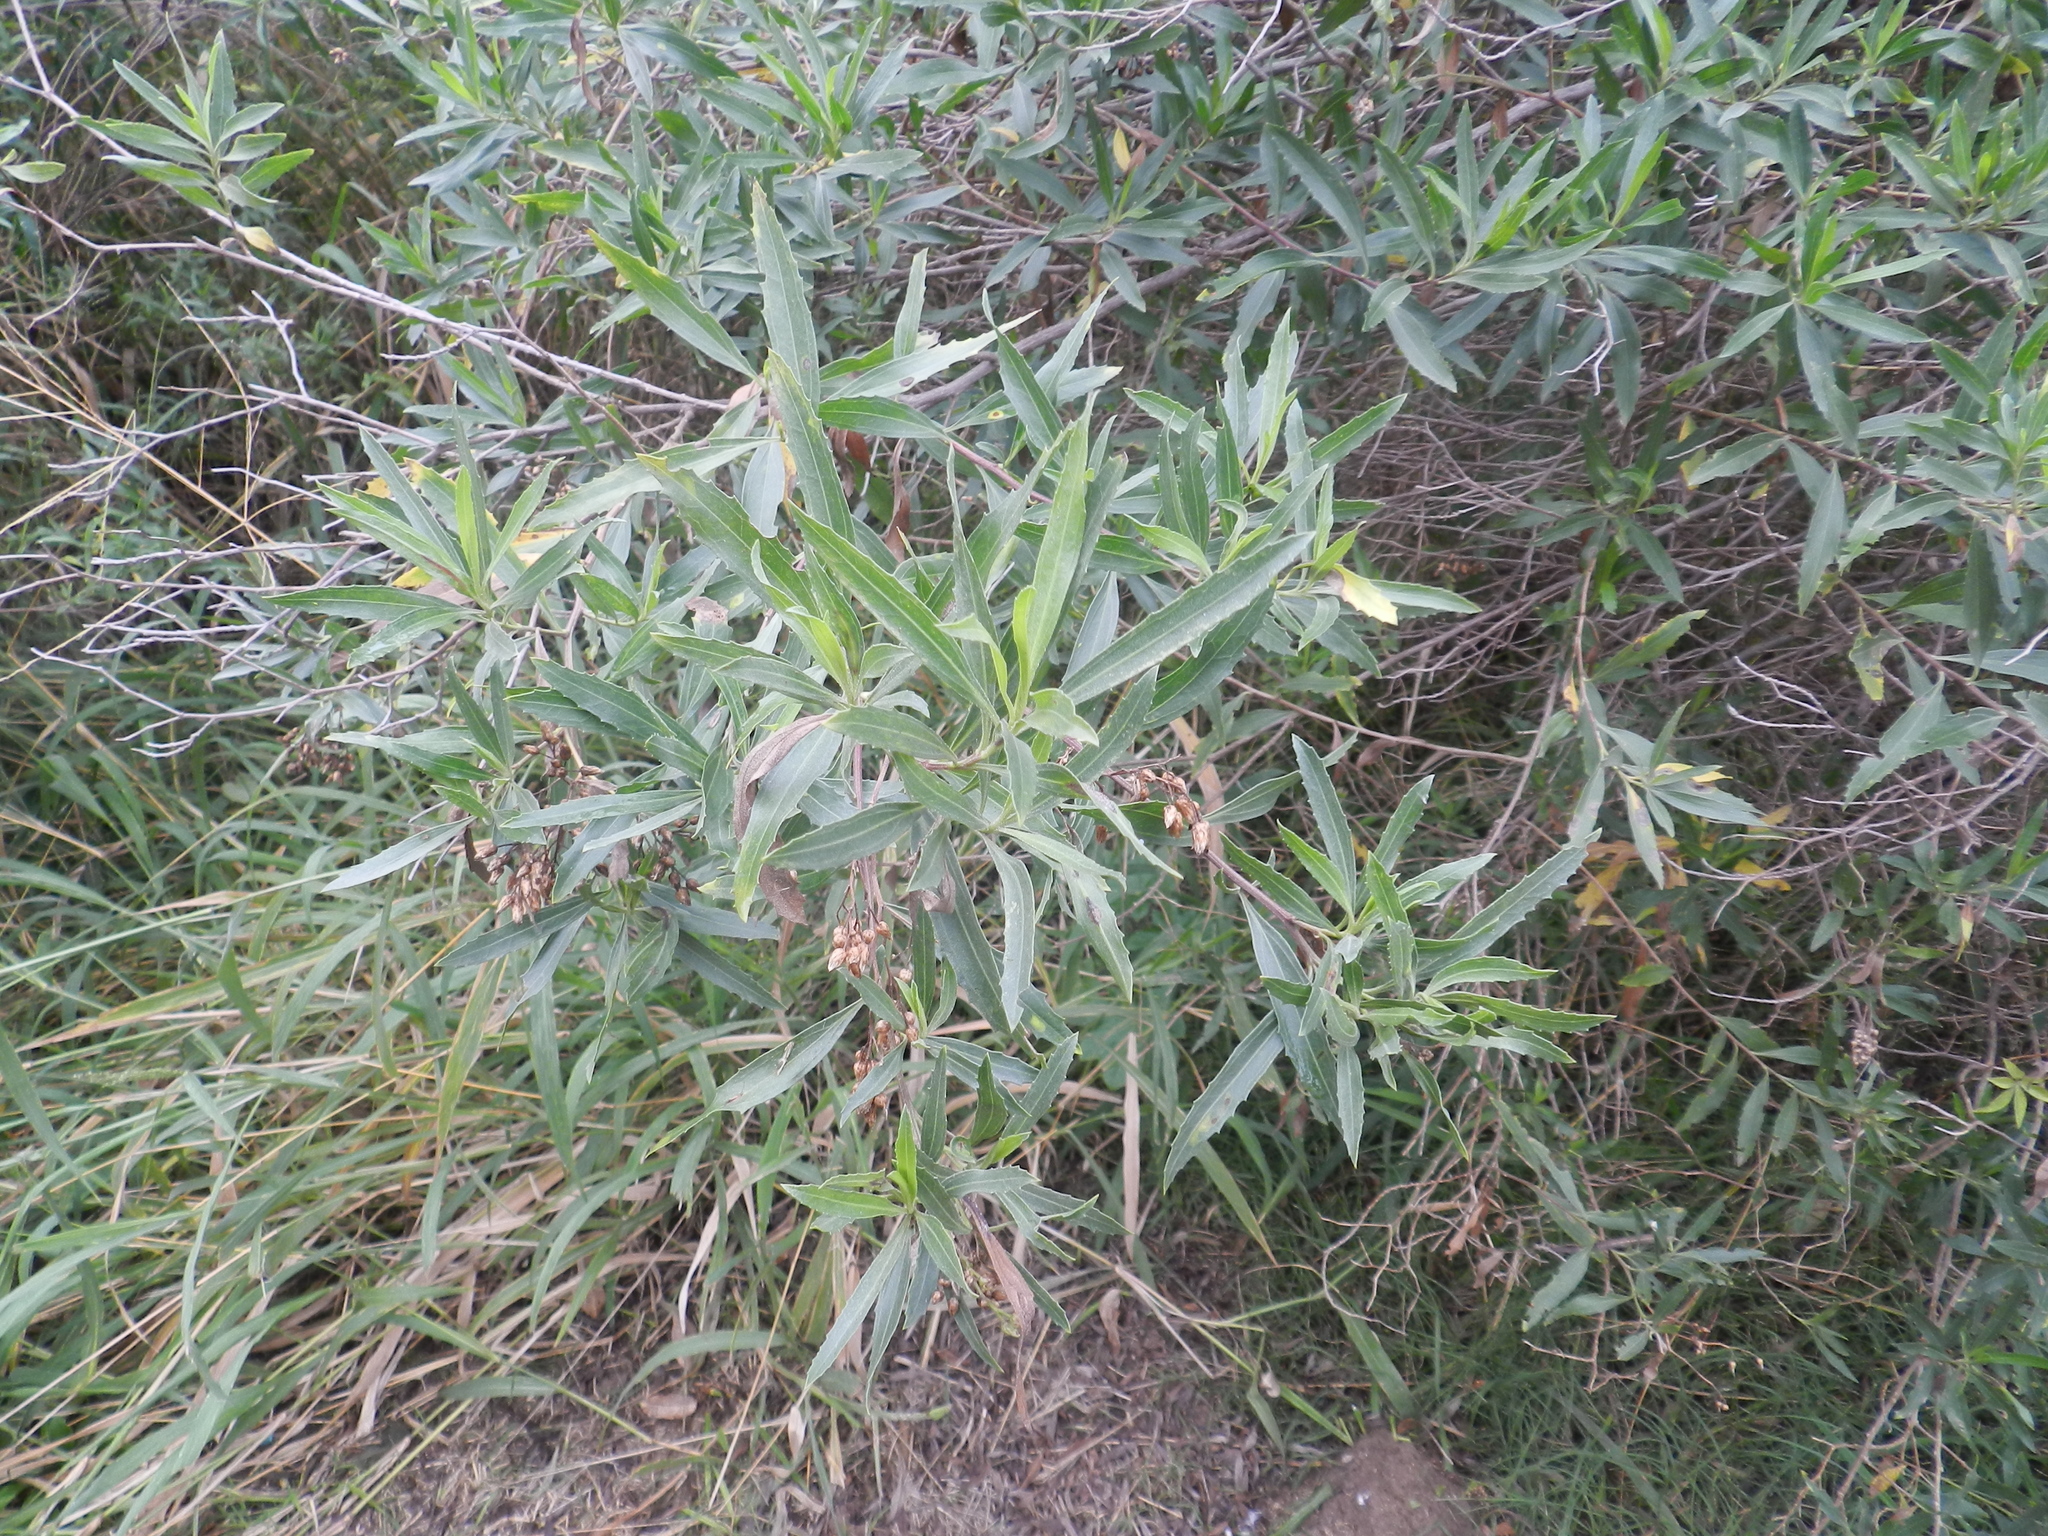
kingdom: Plantae
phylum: Tracheophyta
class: Magnoliopsida
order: Asterales
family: Asteraceae
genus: Baccharis
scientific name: Baccharis salicifolia
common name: Sticky baccharis
